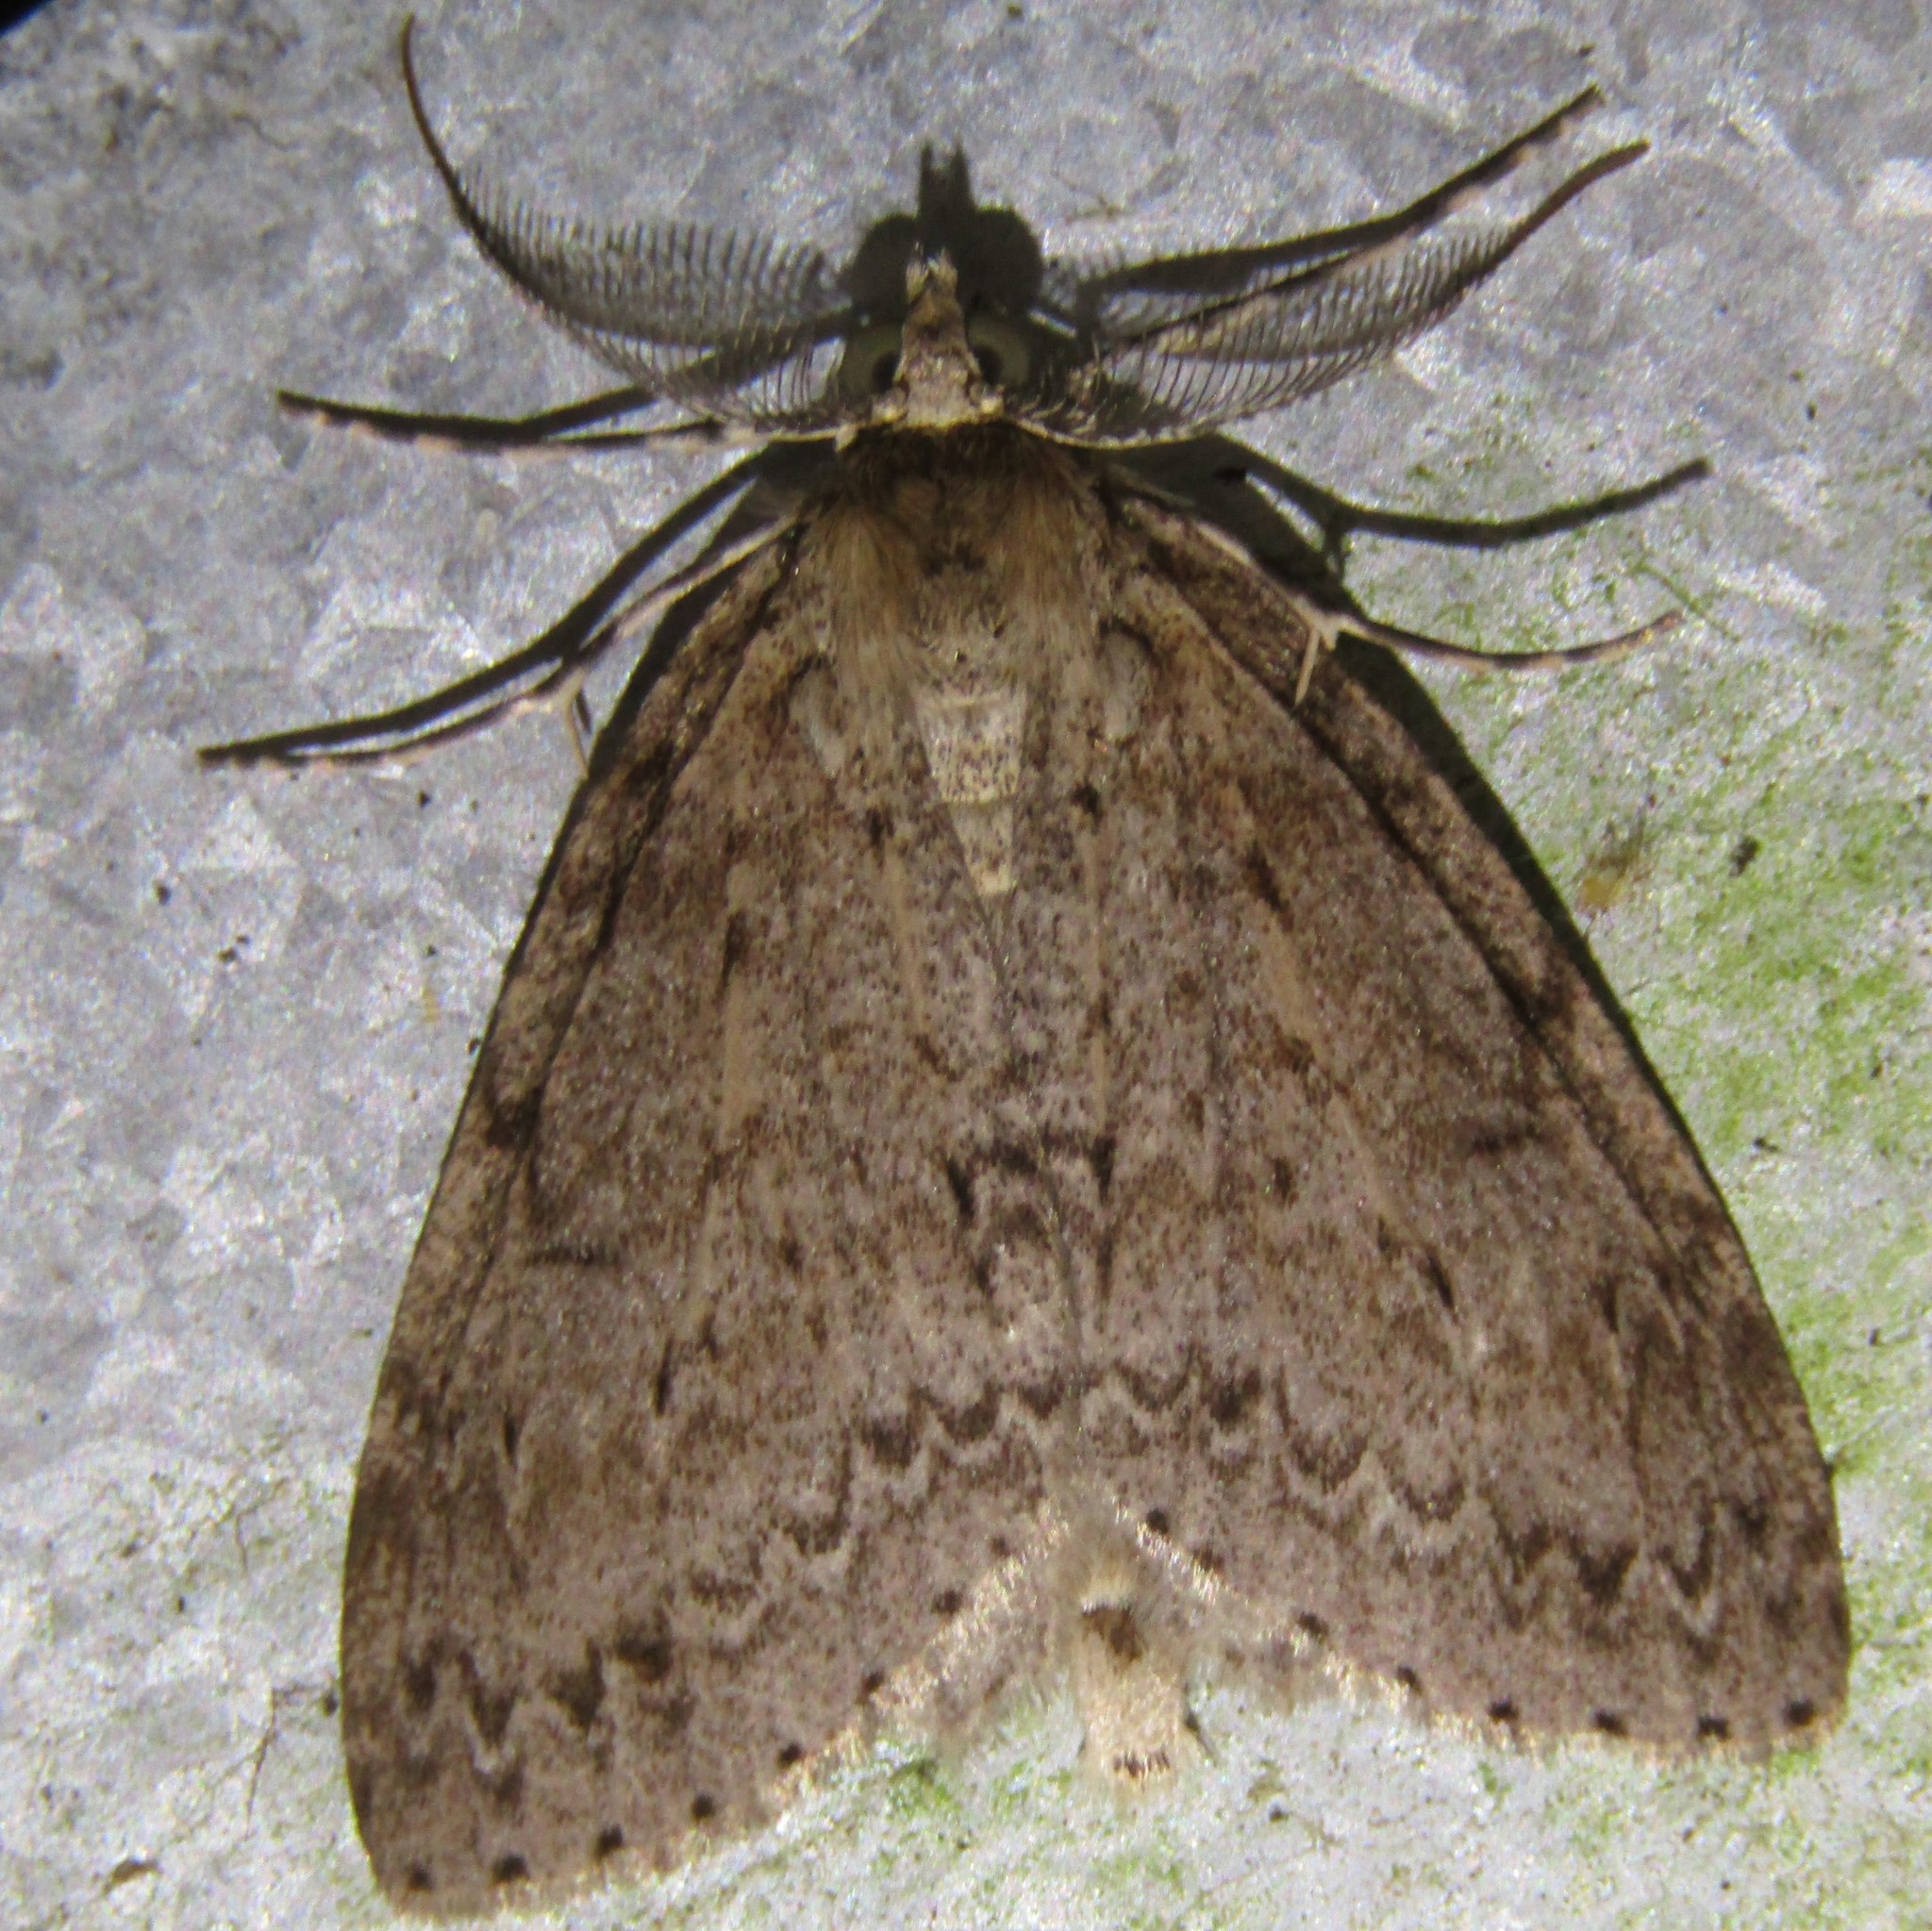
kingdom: Animalia
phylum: Arthropoda
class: Insecta
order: Lepidoptera
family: Geometridae
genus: Pseudocoremia
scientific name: Pseudocoremia fenerata
